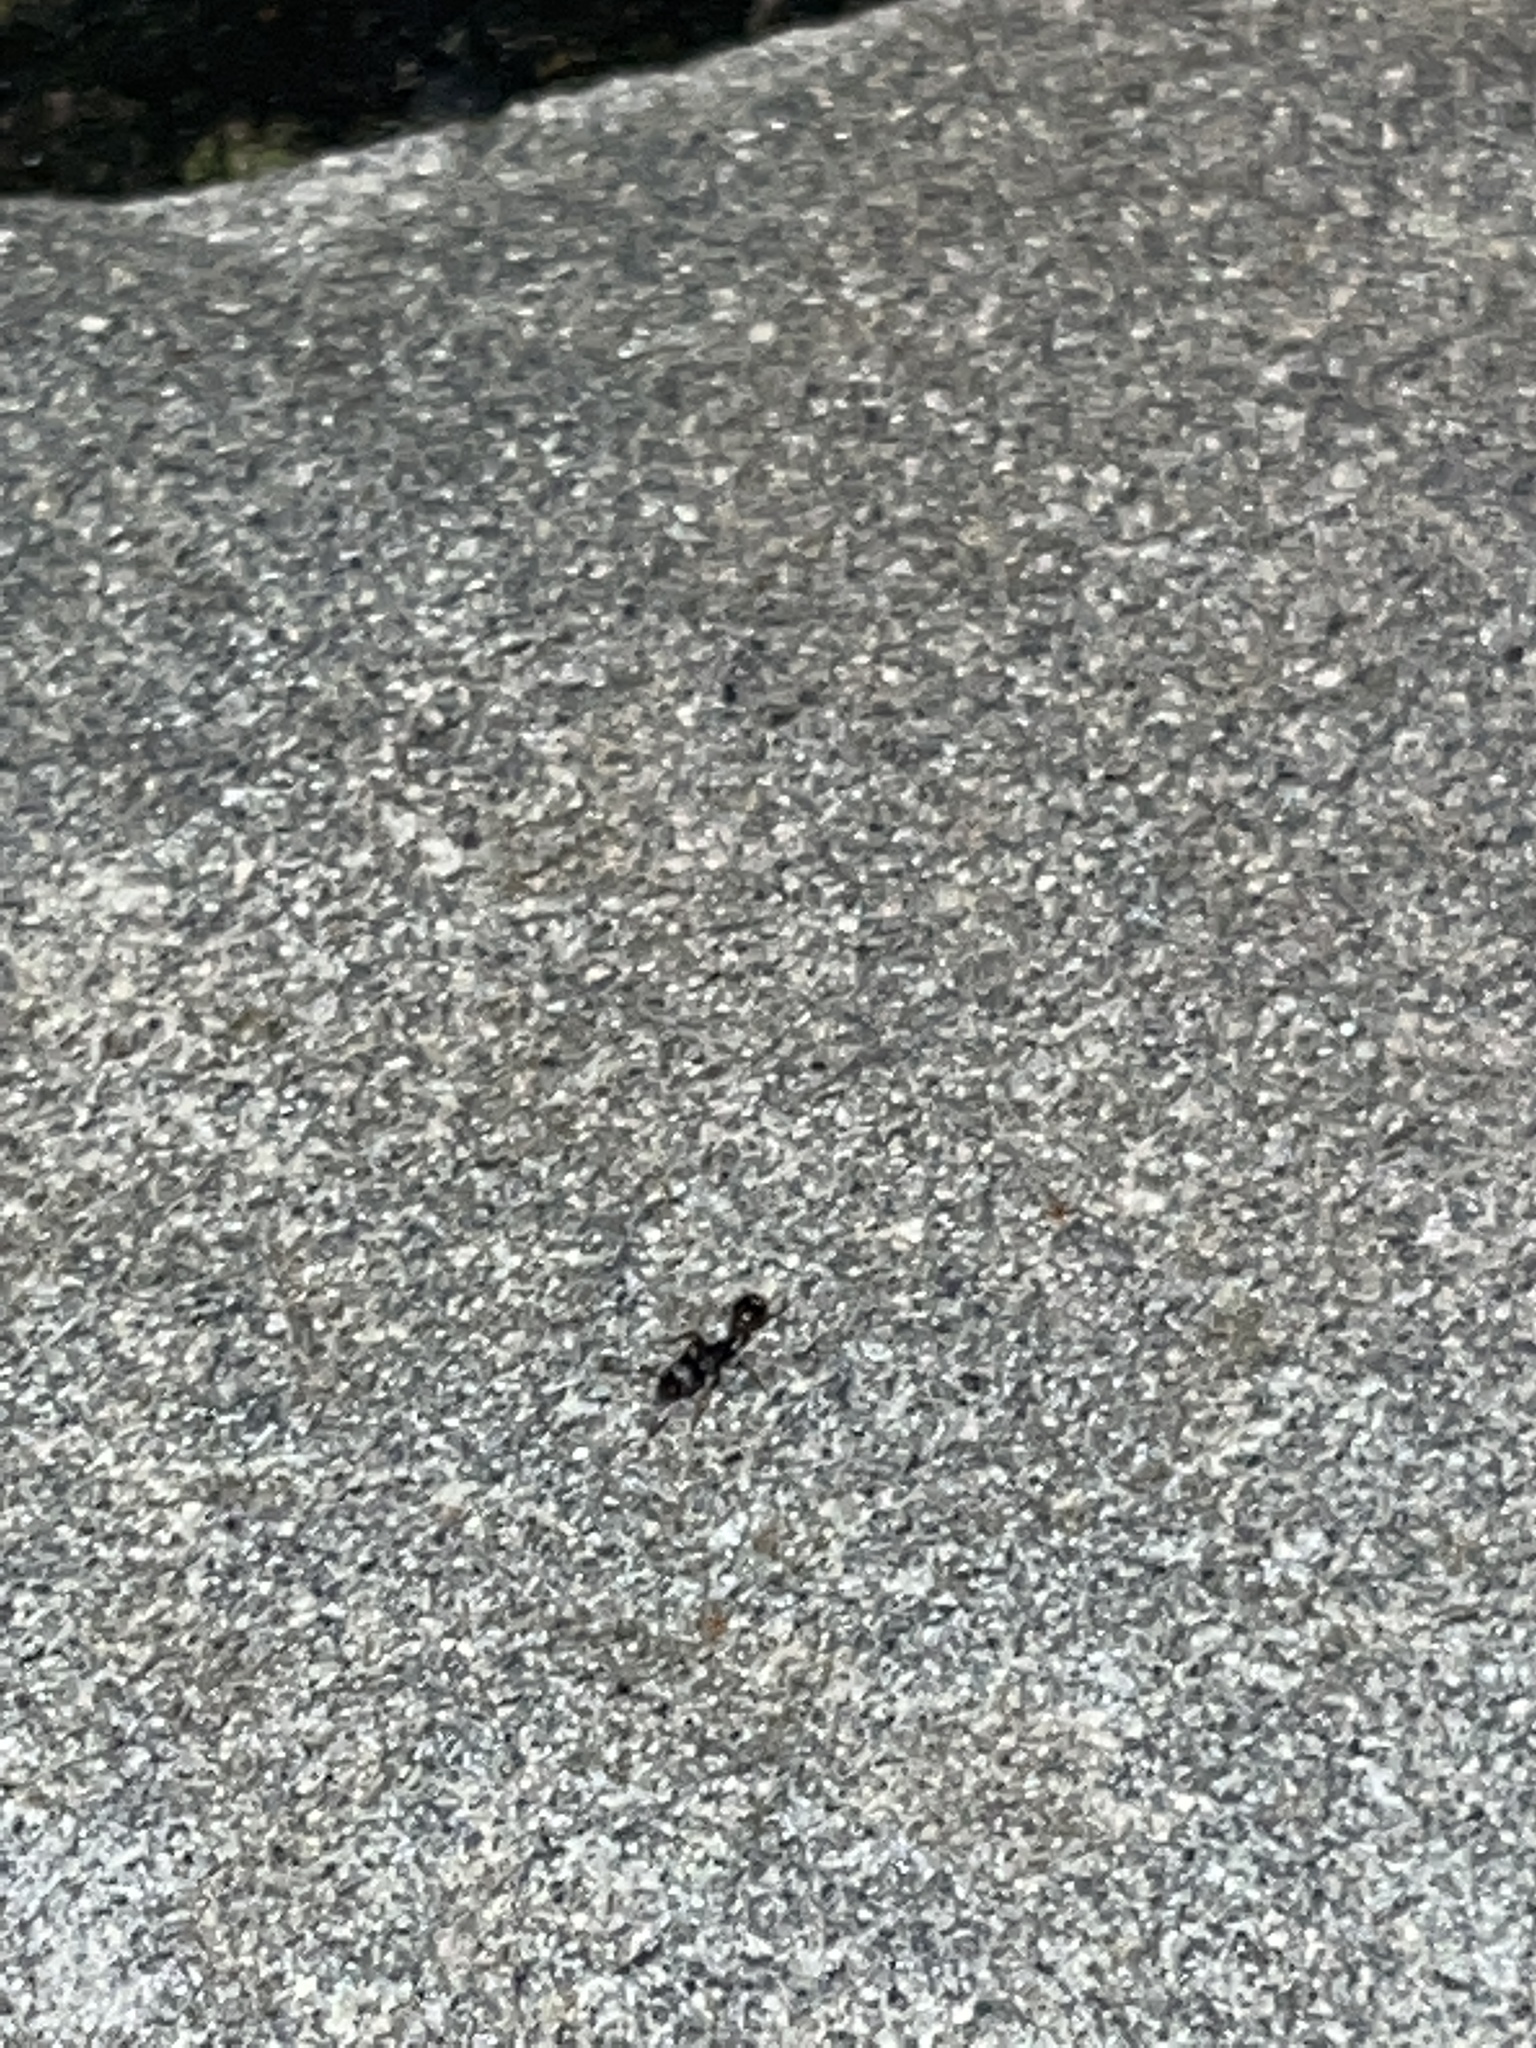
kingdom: Animalia
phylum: Arthropoda
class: Insecta
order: Hymenoptera
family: Formicidae
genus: Tetramorium
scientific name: Tetramorium immigrans
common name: Pavement ant
